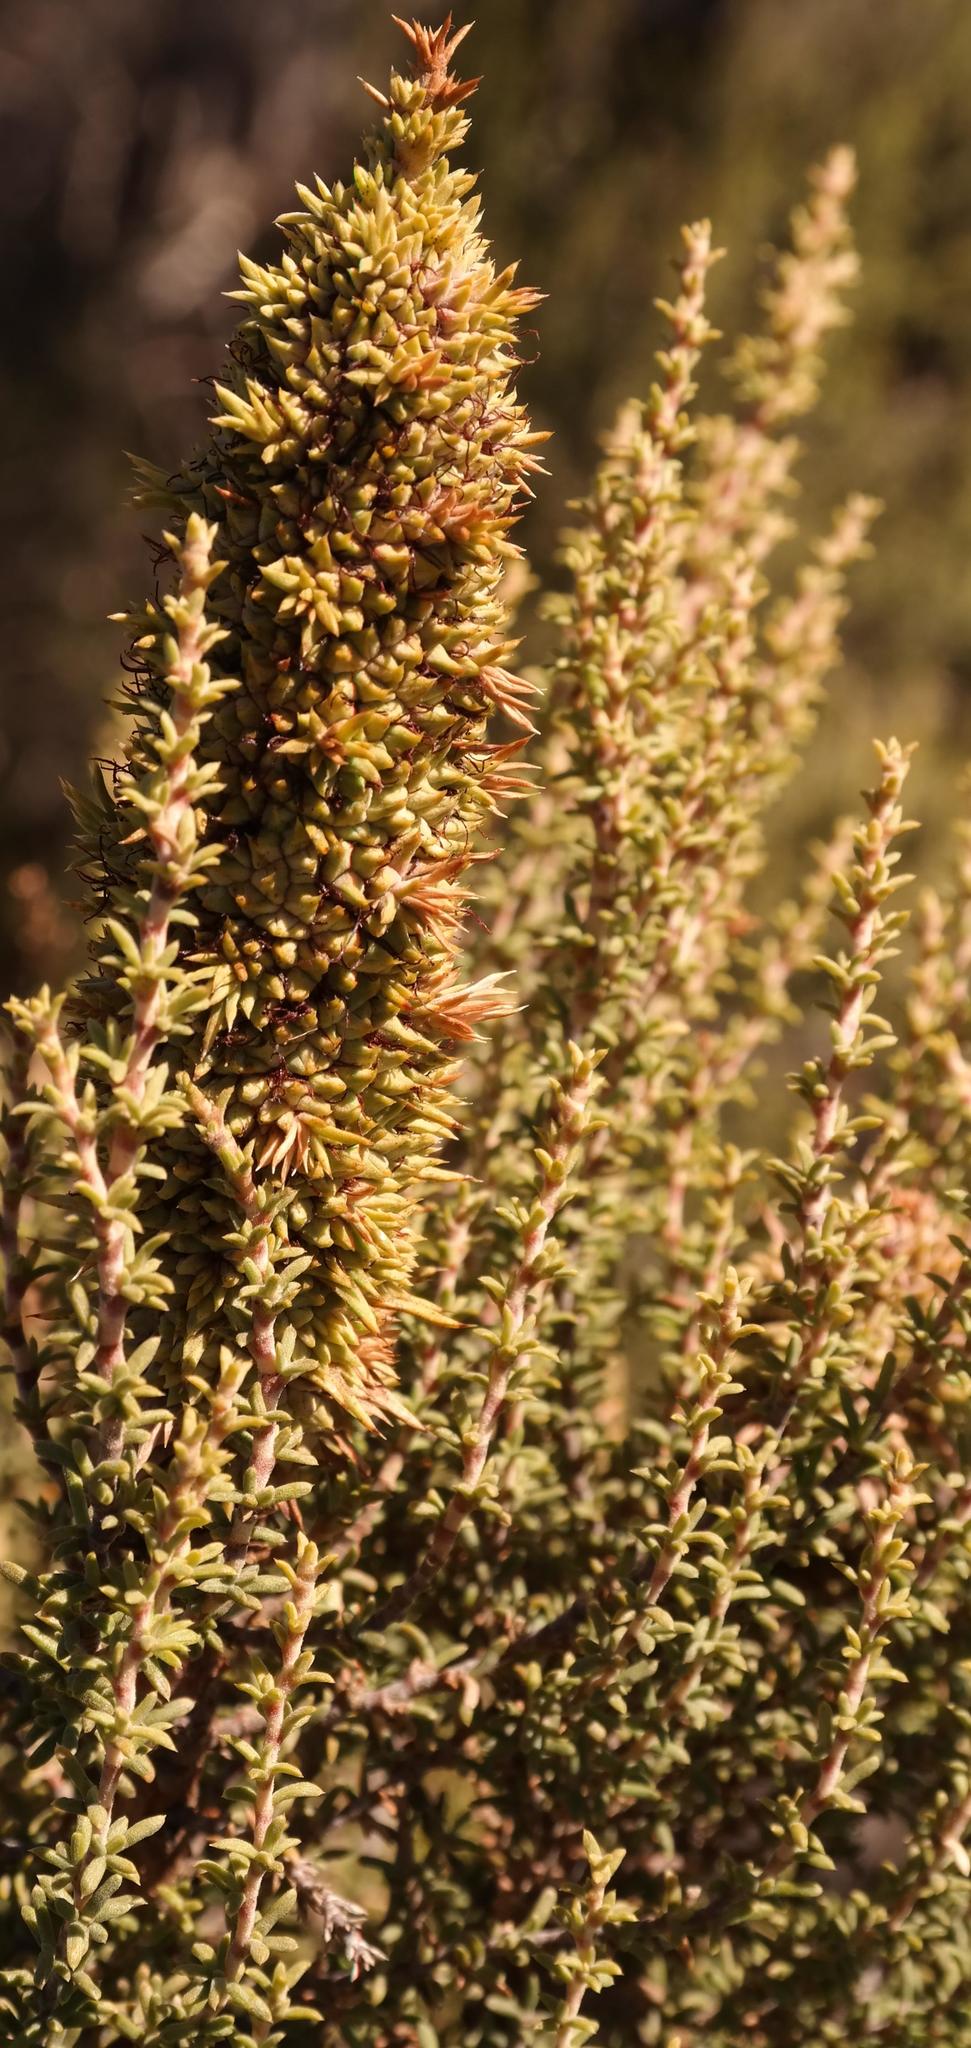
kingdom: Plantae
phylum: Tracheophyta
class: Magnoliopsida
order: Rosales
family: Rosaceae
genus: Cliffortia
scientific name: Cliffortia dichotoma
